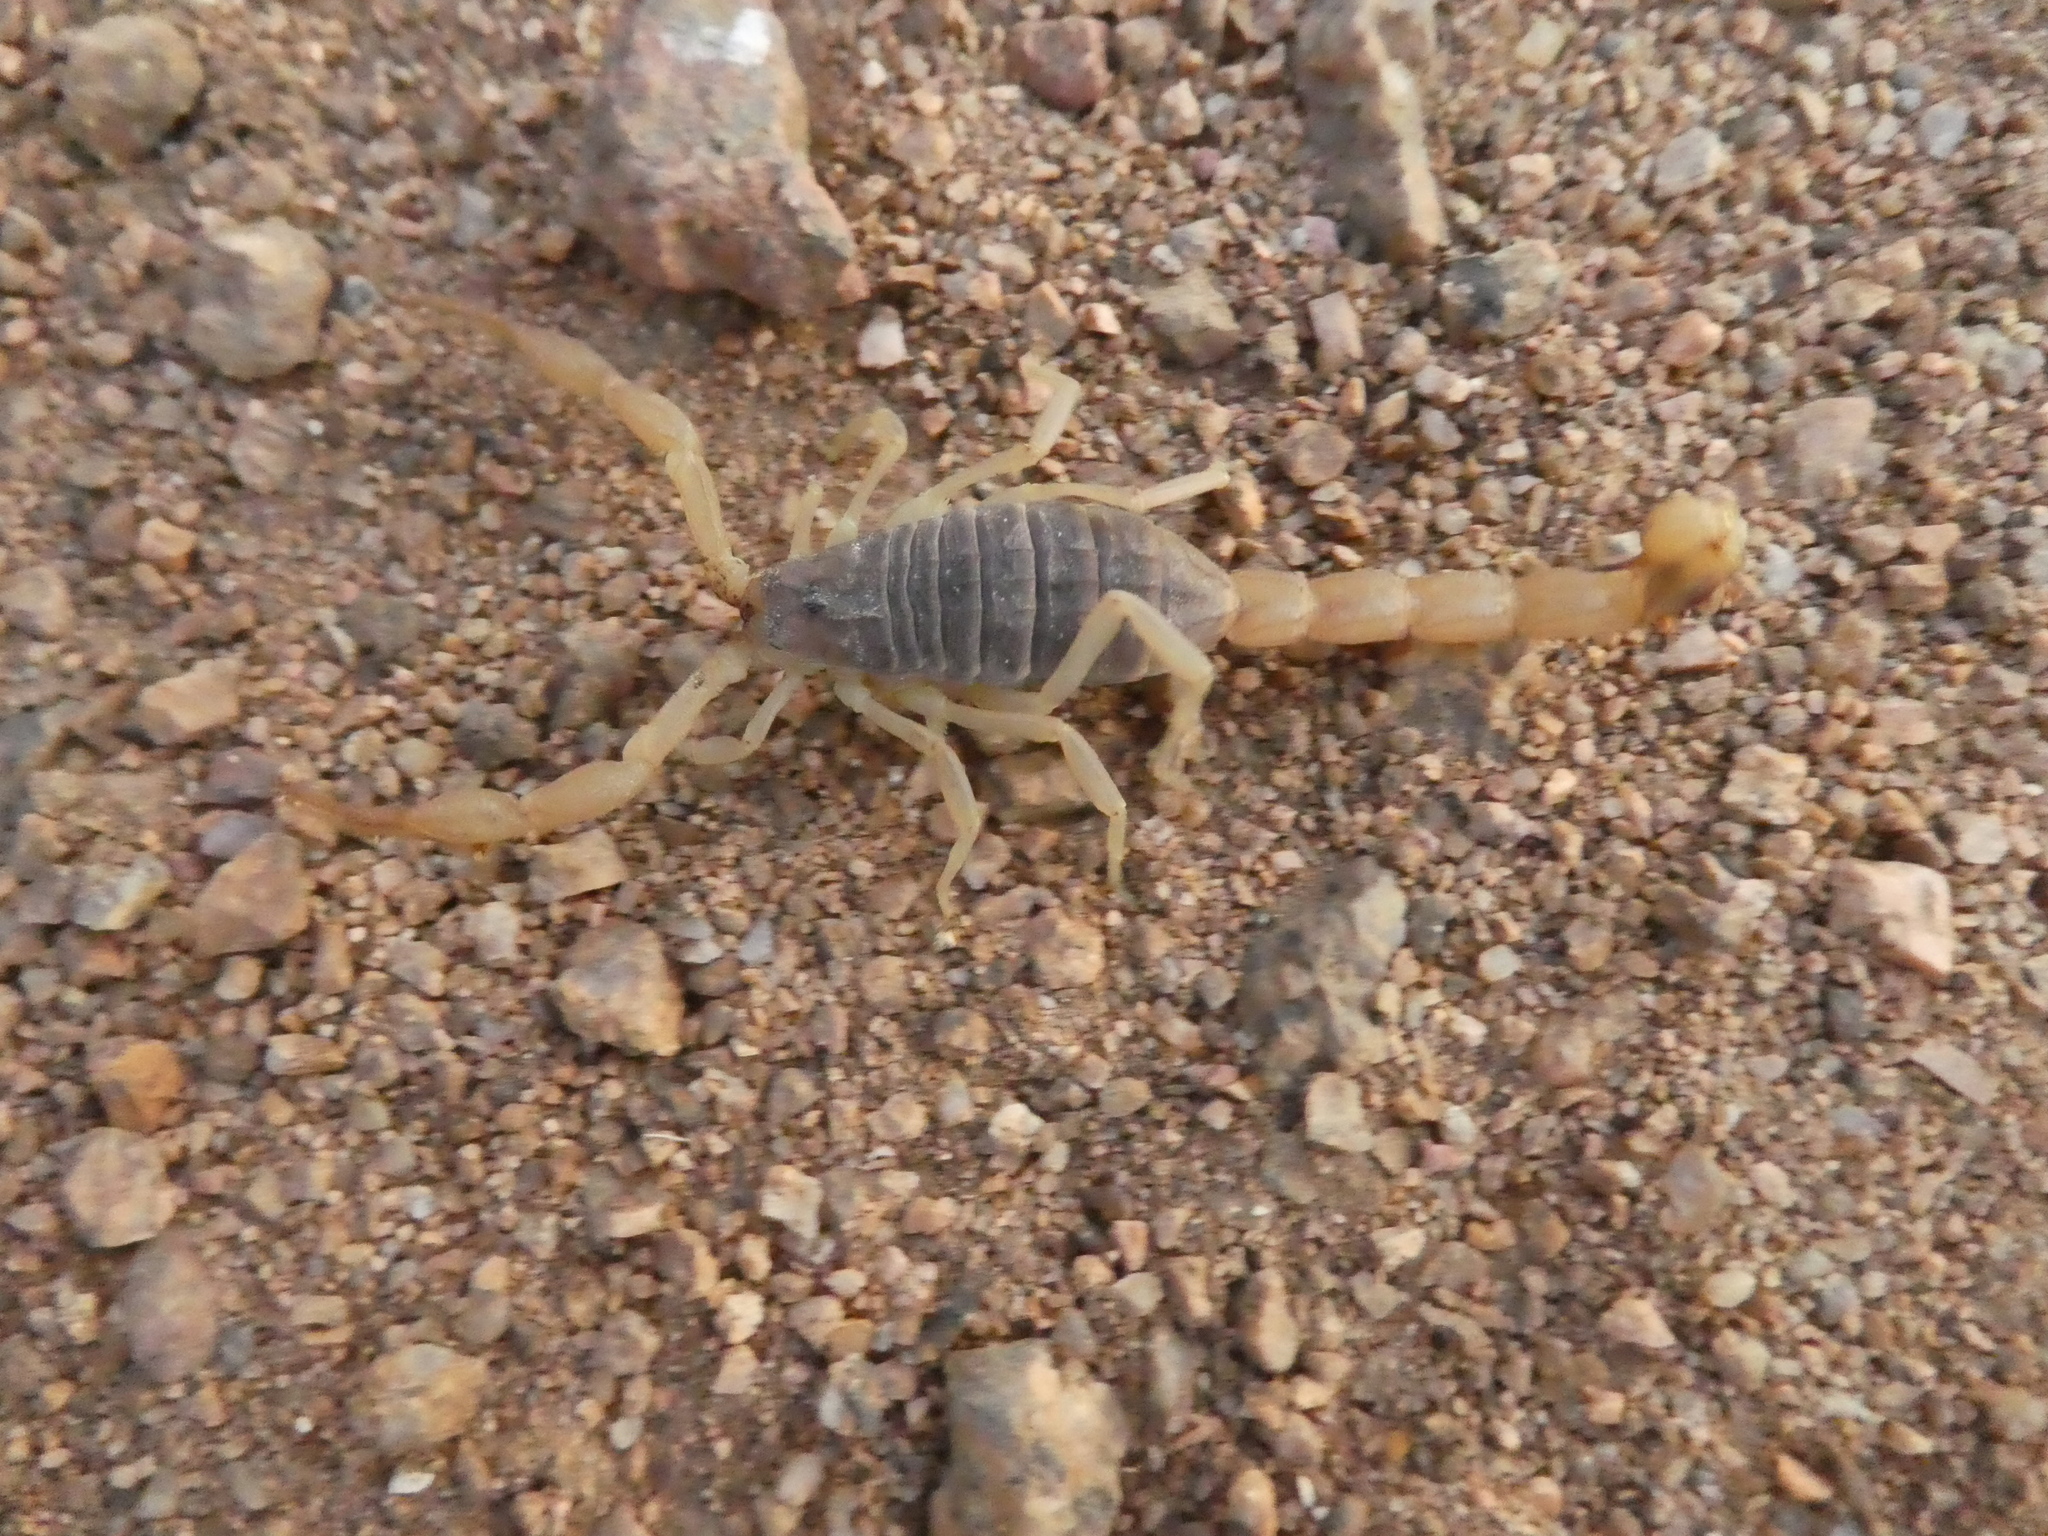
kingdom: Animalia
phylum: Arthropoda
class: Arachnida
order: Scorpiones
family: Buthidae
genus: Olivierus
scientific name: Olivierus martensii
